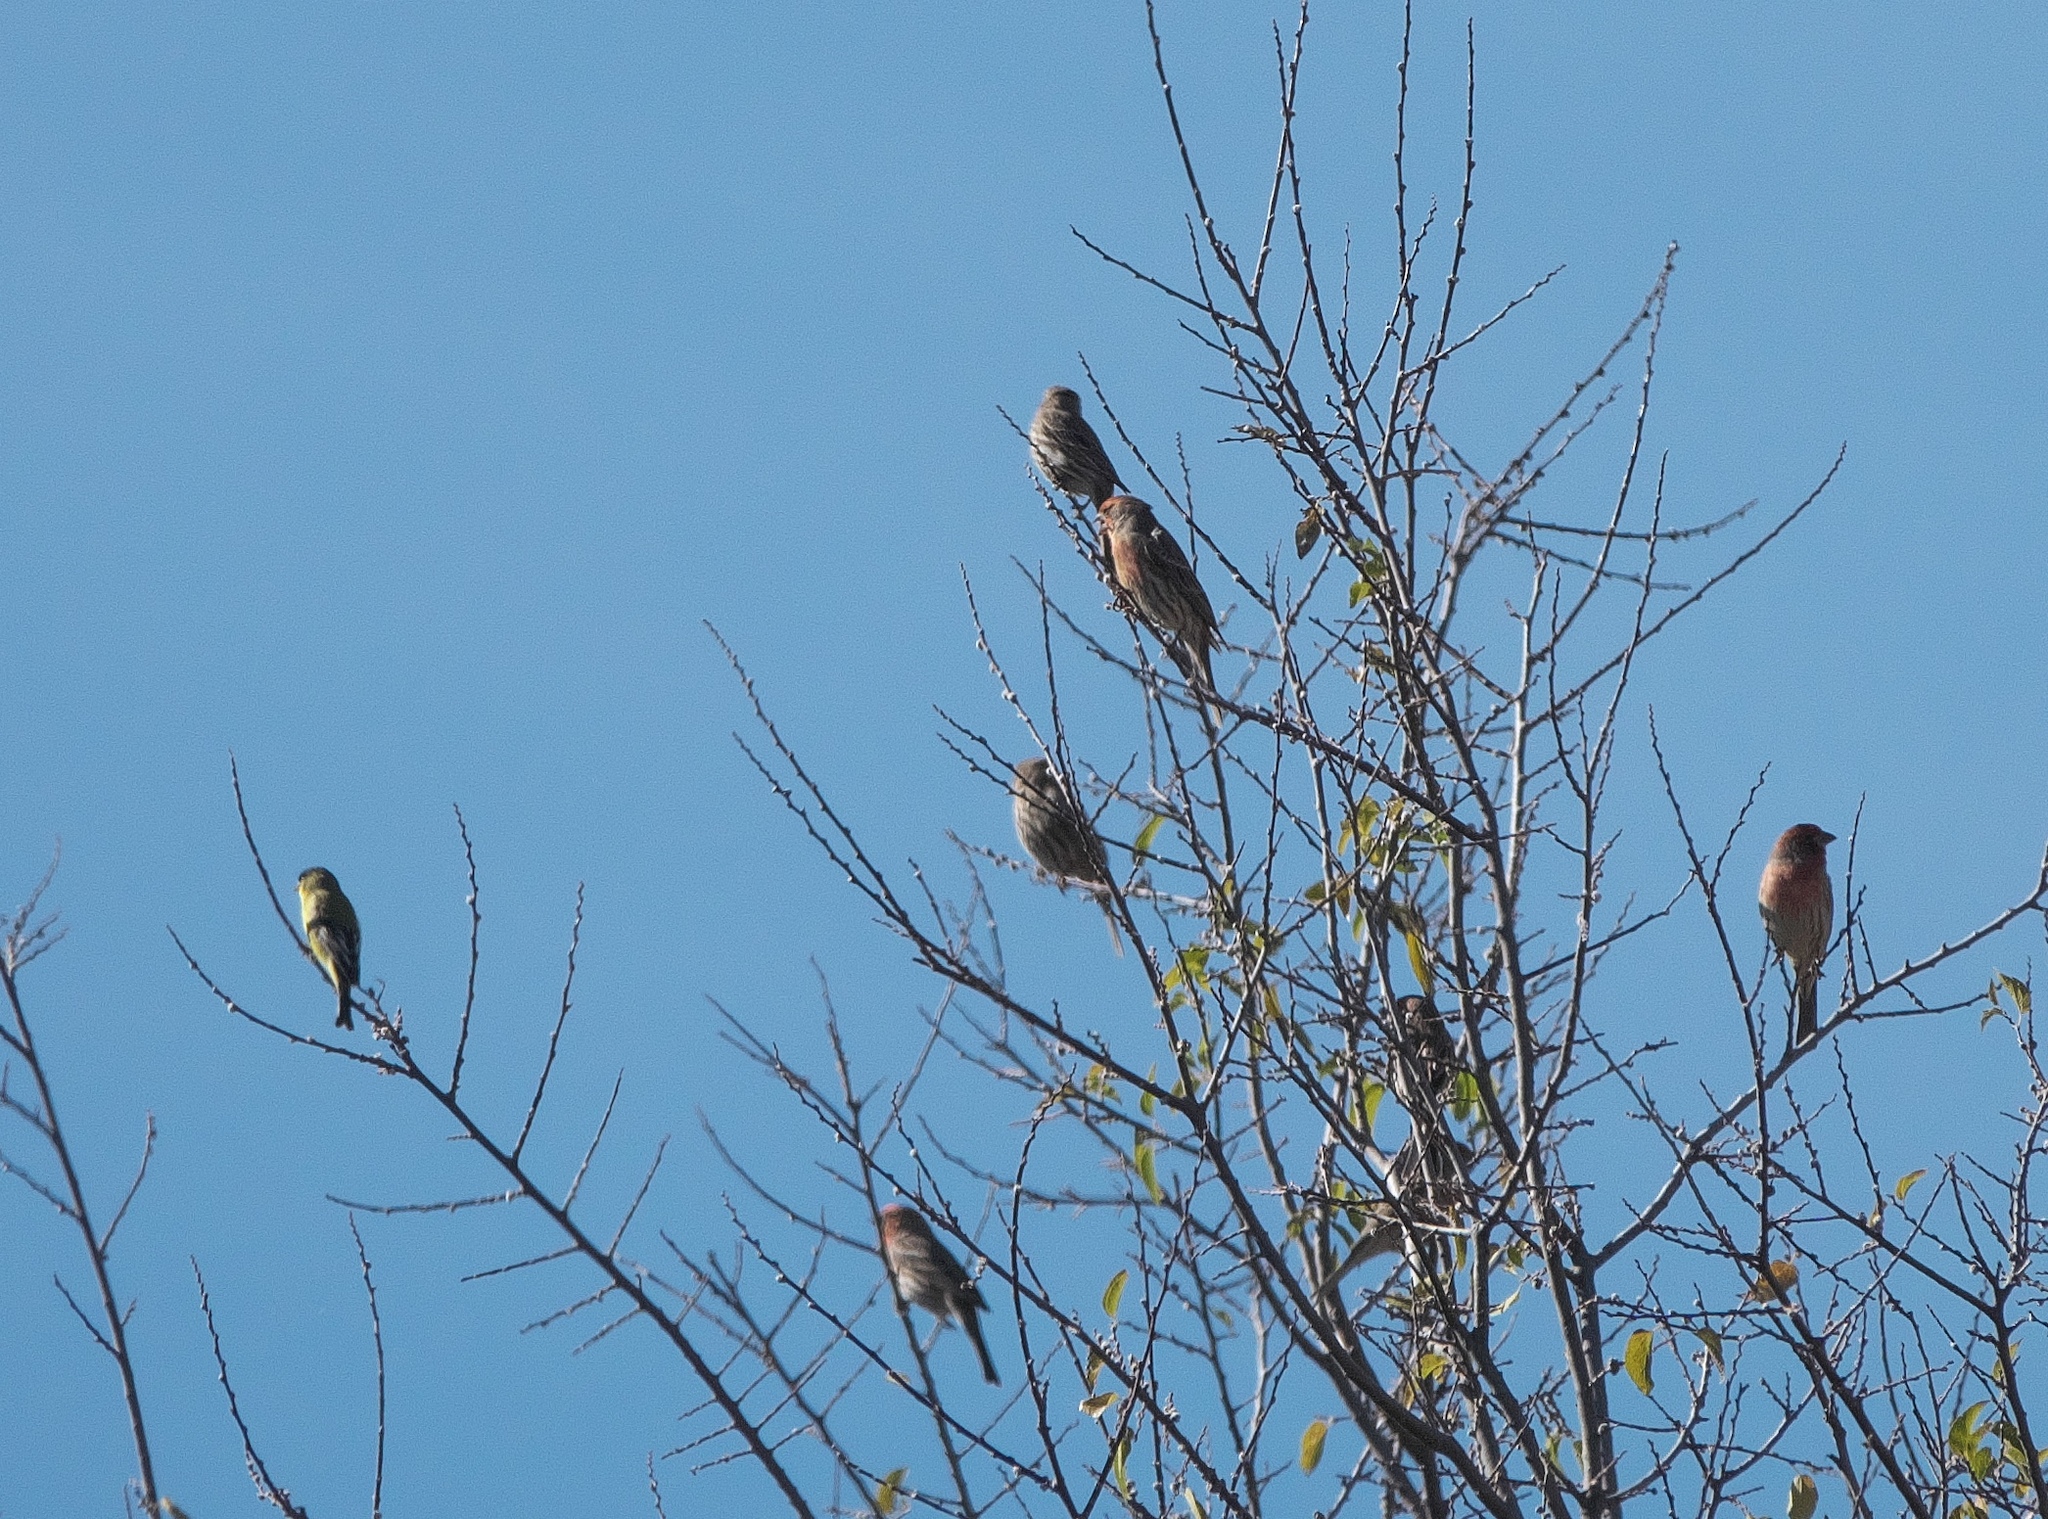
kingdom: Animalia
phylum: Chordata
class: Aves
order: Passeriformes
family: Fringillidae
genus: Haemorhous
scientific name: Haemorhous mexicanus
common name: House finch
